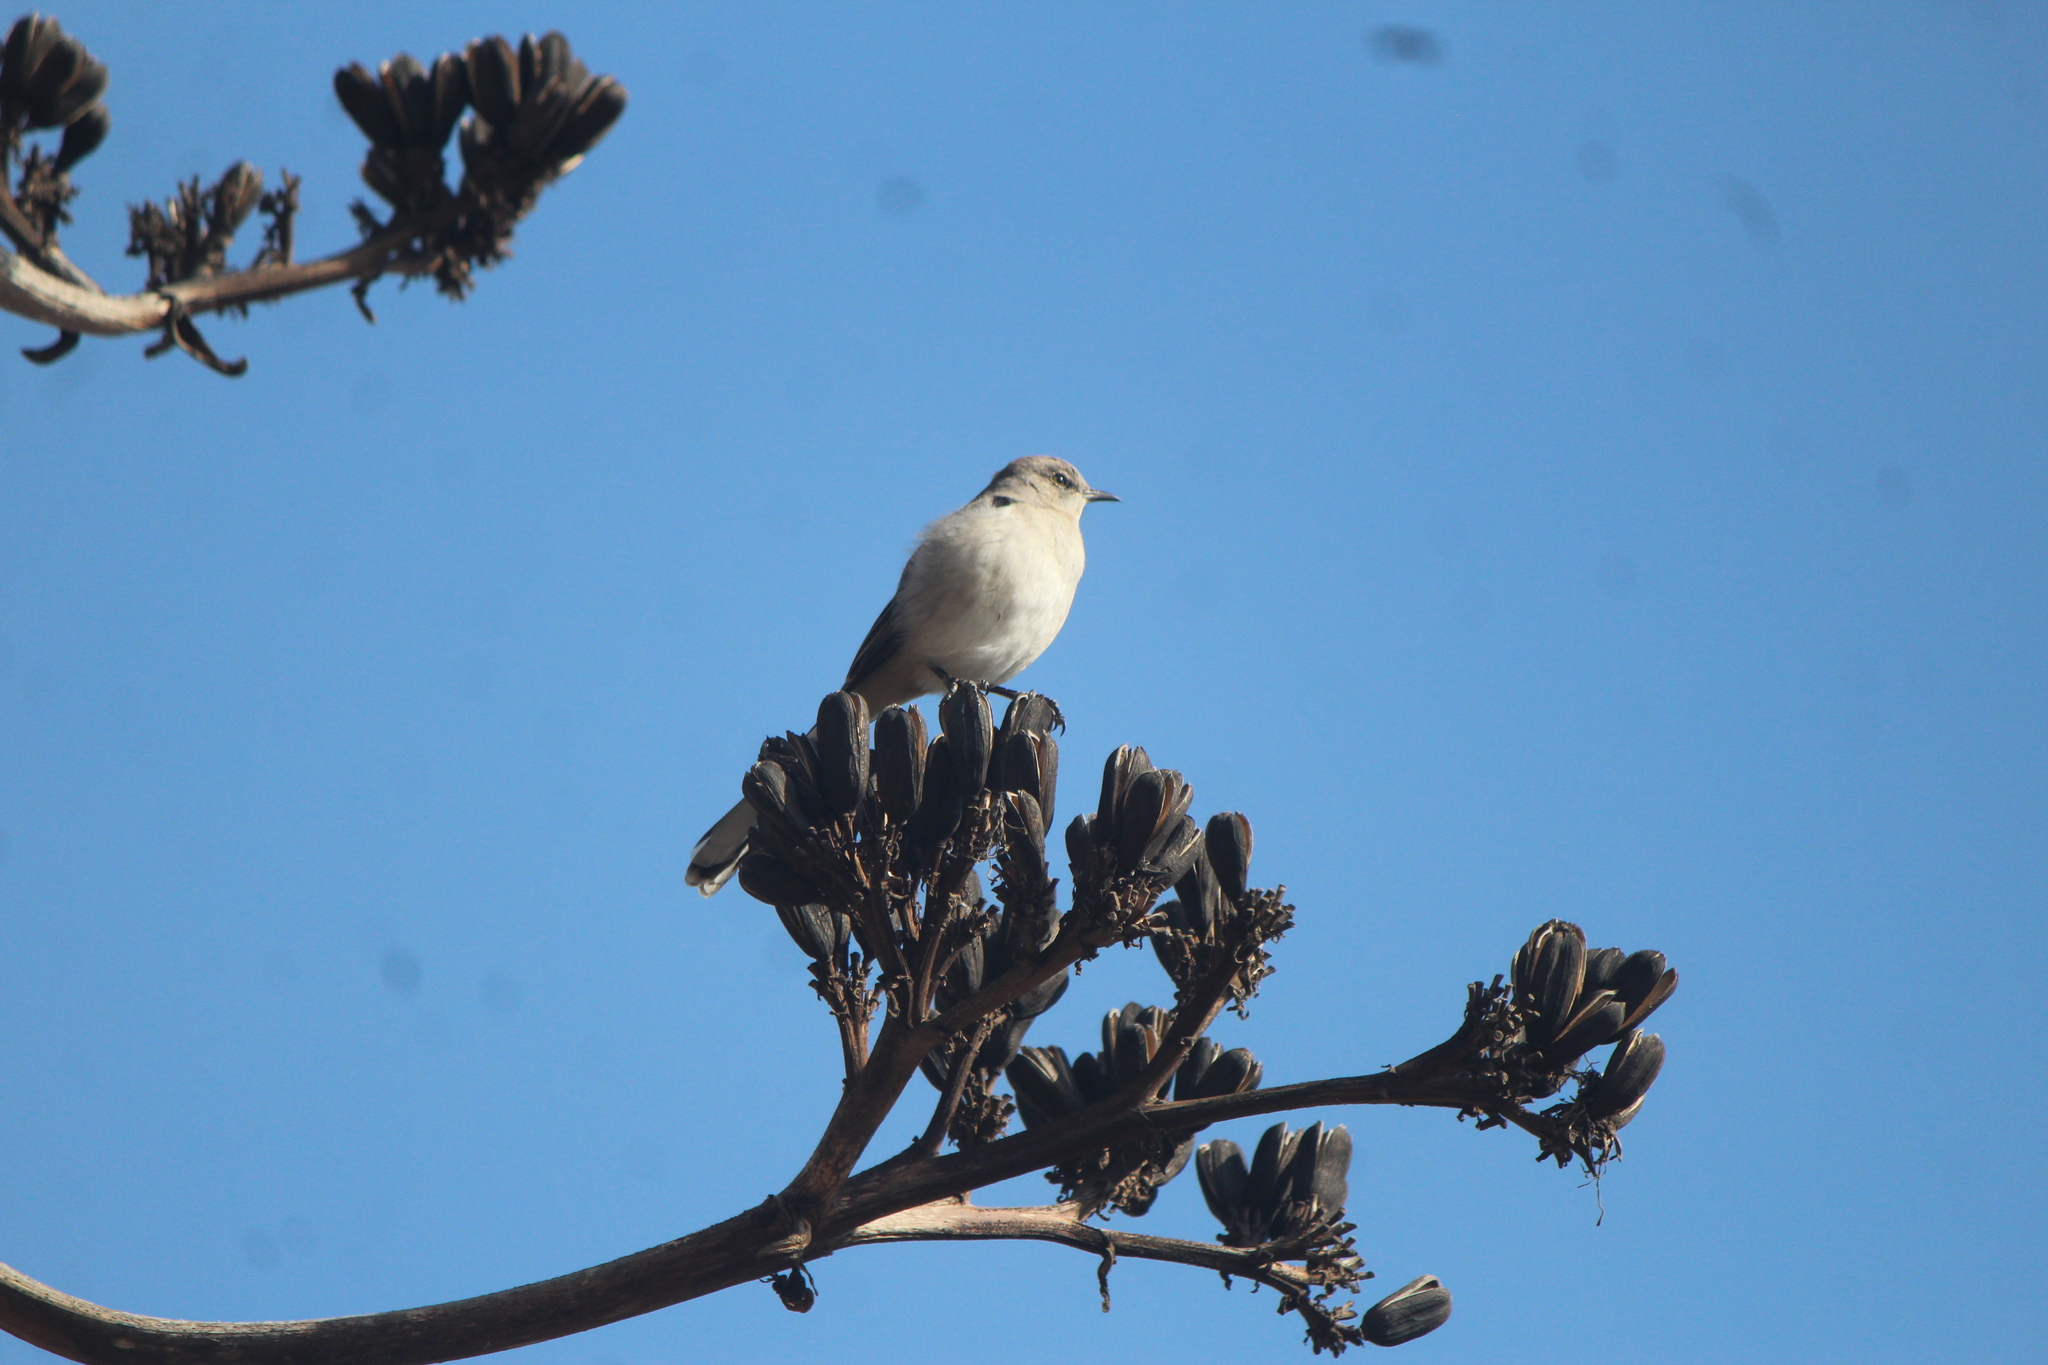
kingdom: Animalia
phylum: Chordata
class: Aves
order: Passeriformes
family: Mimidae
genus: Mimus
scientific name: Mimus polyglottos
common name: Northern mockingbird
